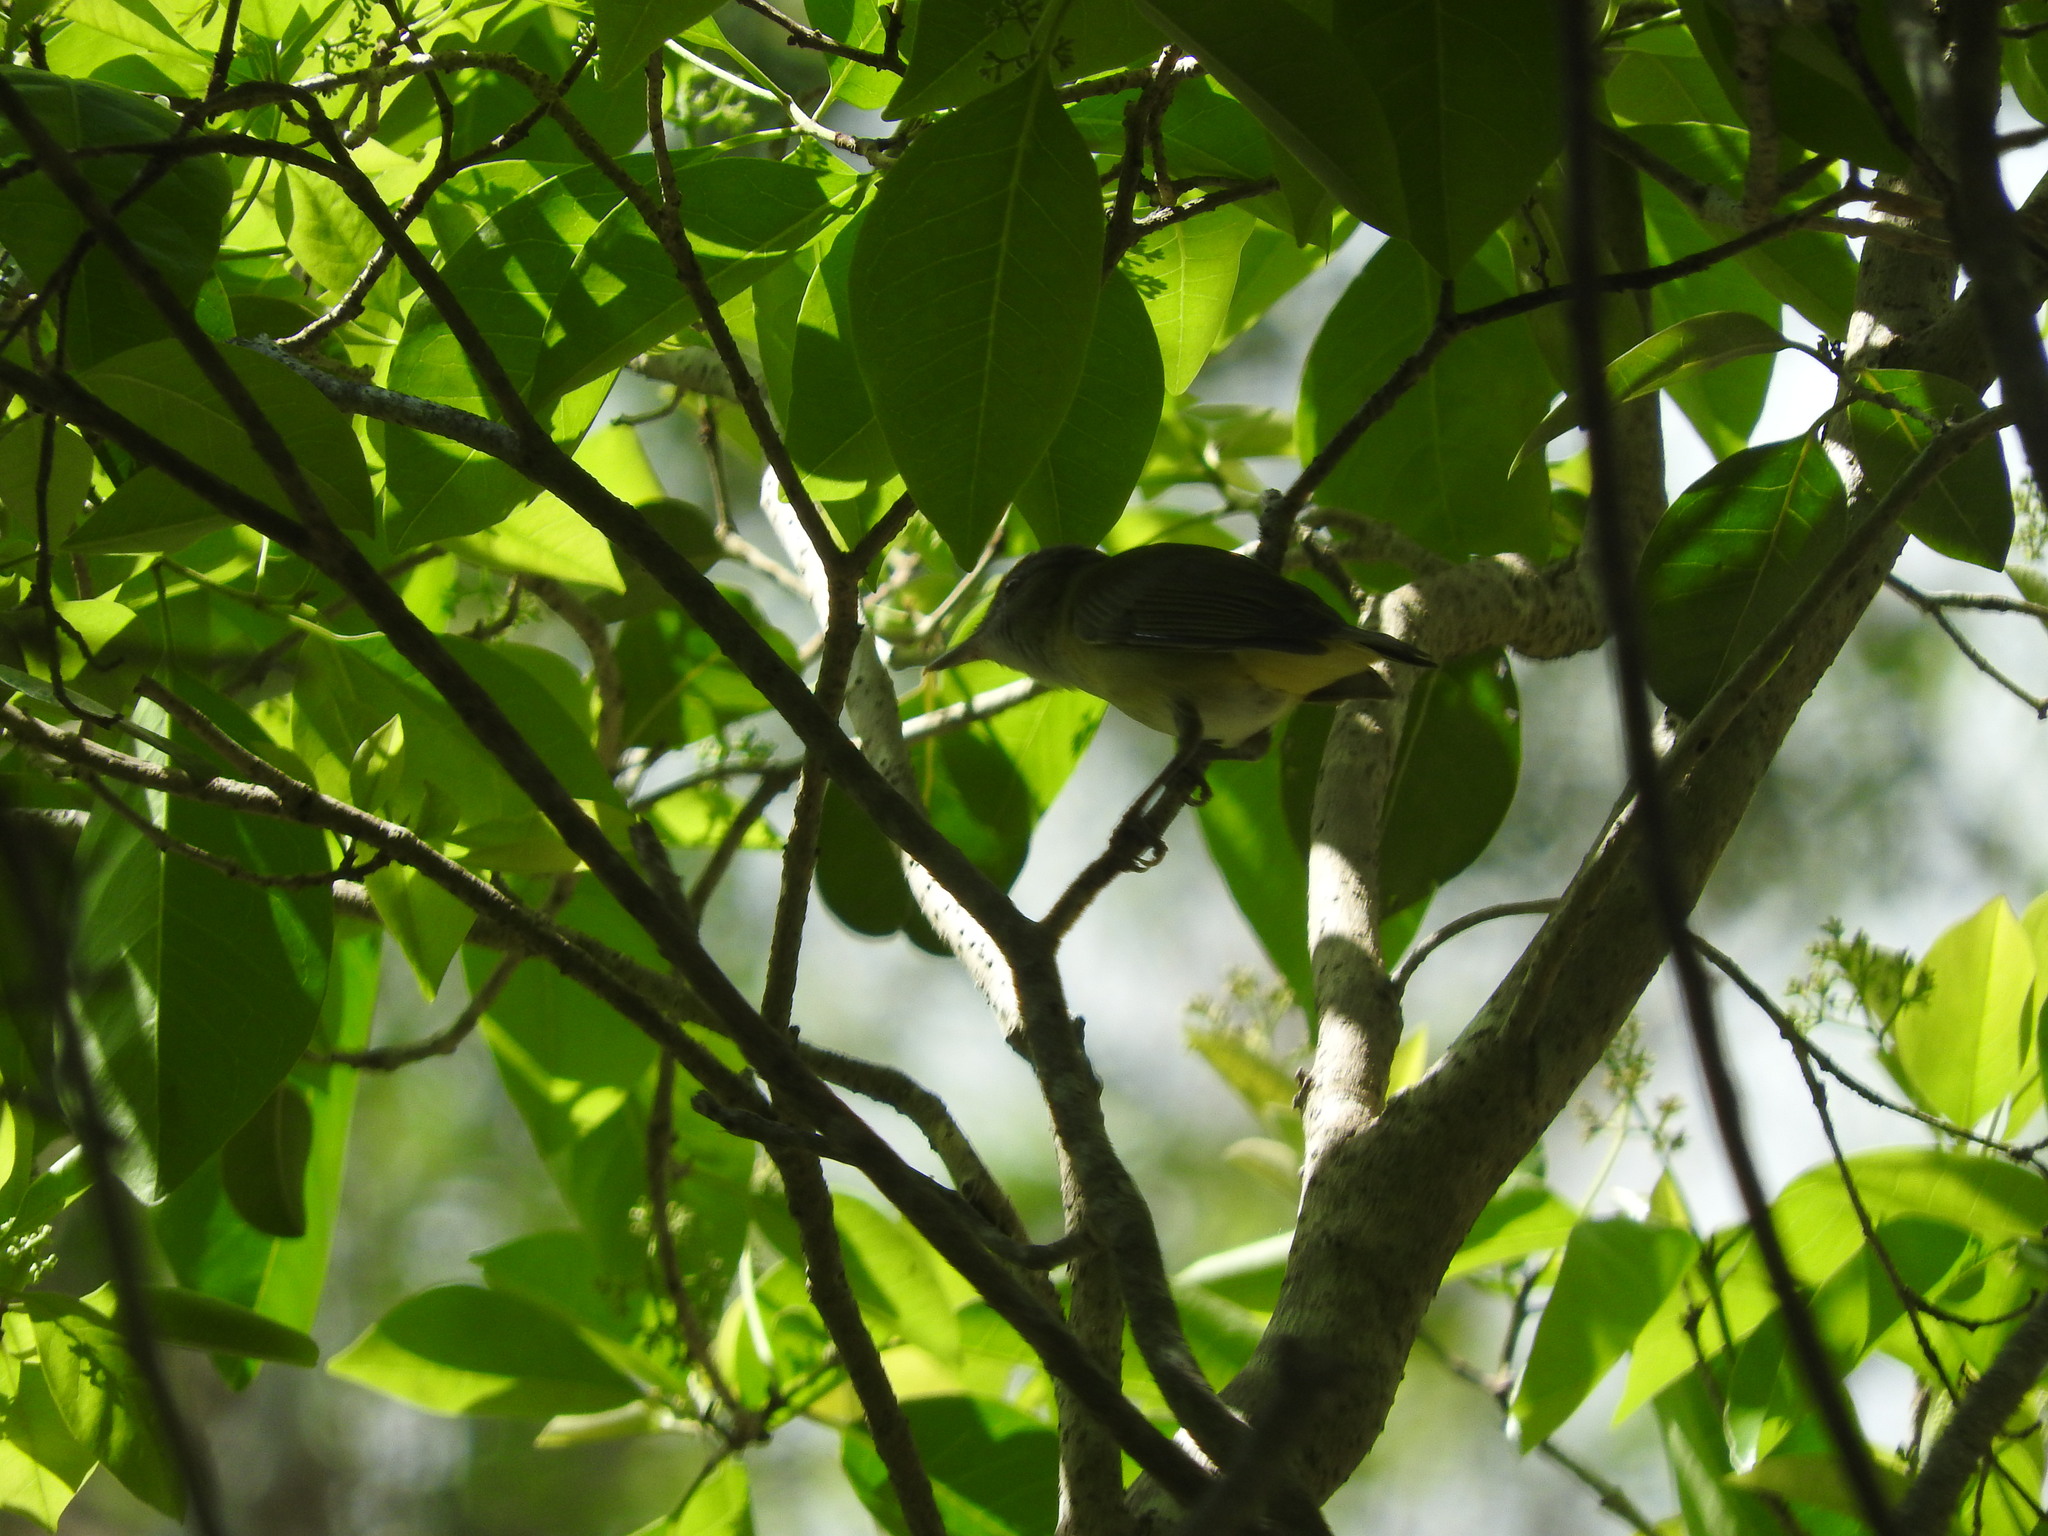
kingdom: Animalia
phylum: Chordata
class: Aves
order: Passeriformes
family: Vireonidae
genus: Vireo
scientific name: Vireo flavoviridis
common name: Yellow-green vireo
